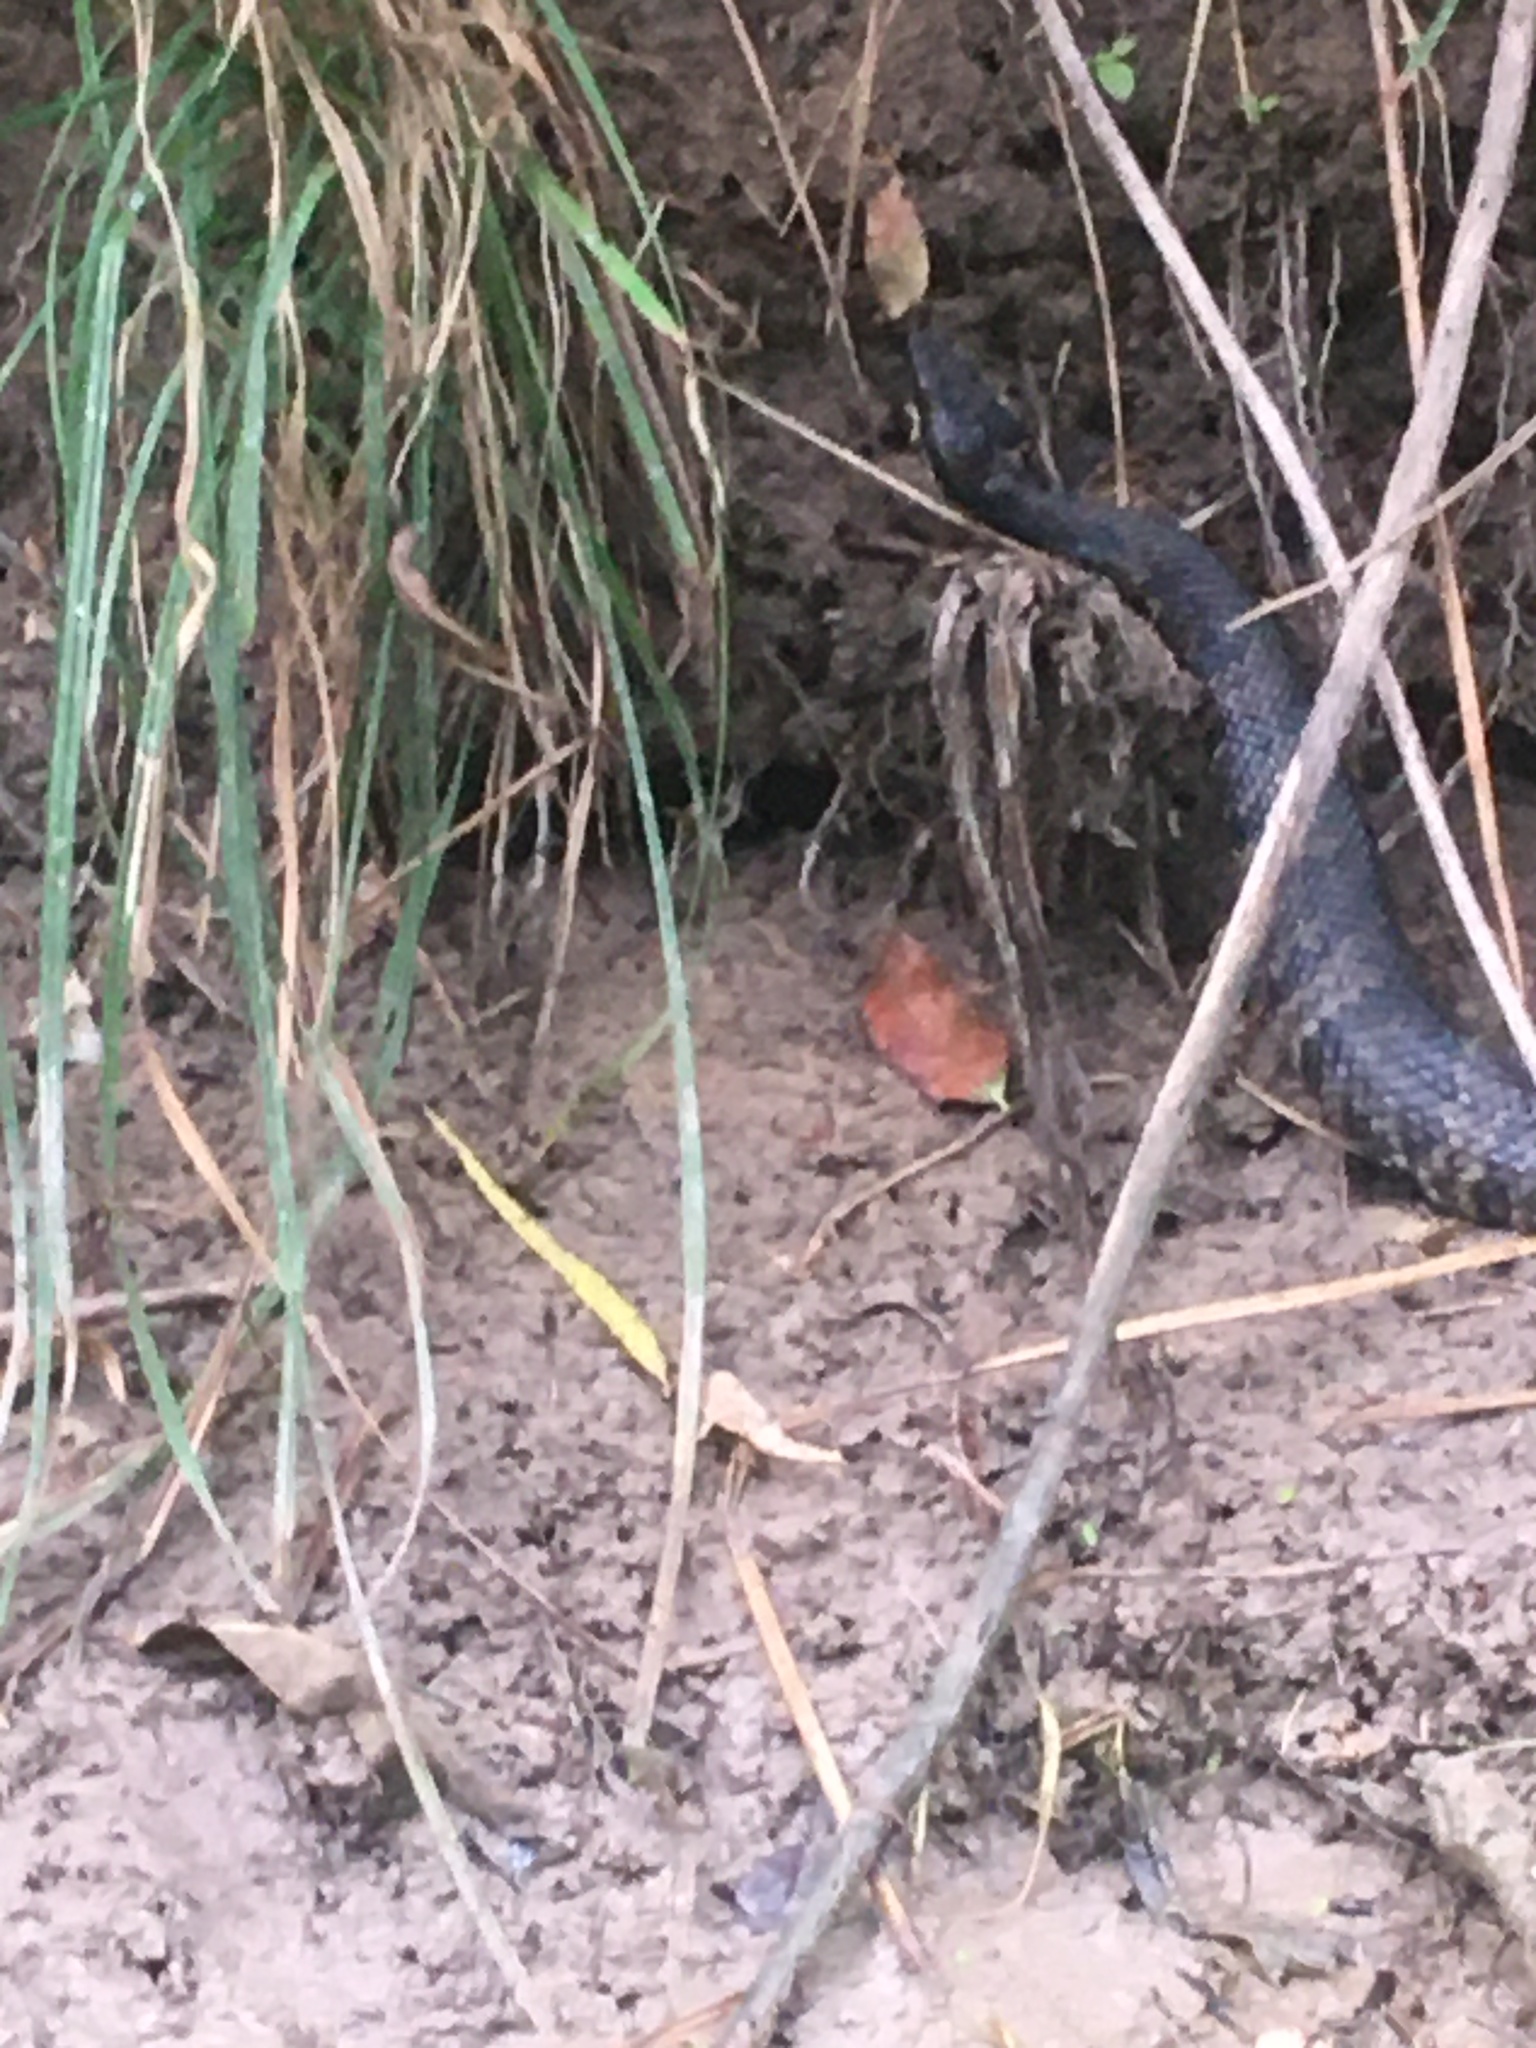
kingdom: Animalia
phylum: Chordata
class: Squamata
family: Viperidae
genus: Agkistrodon
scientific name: Agkistrodon piscivorus
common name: Cottonmouth
